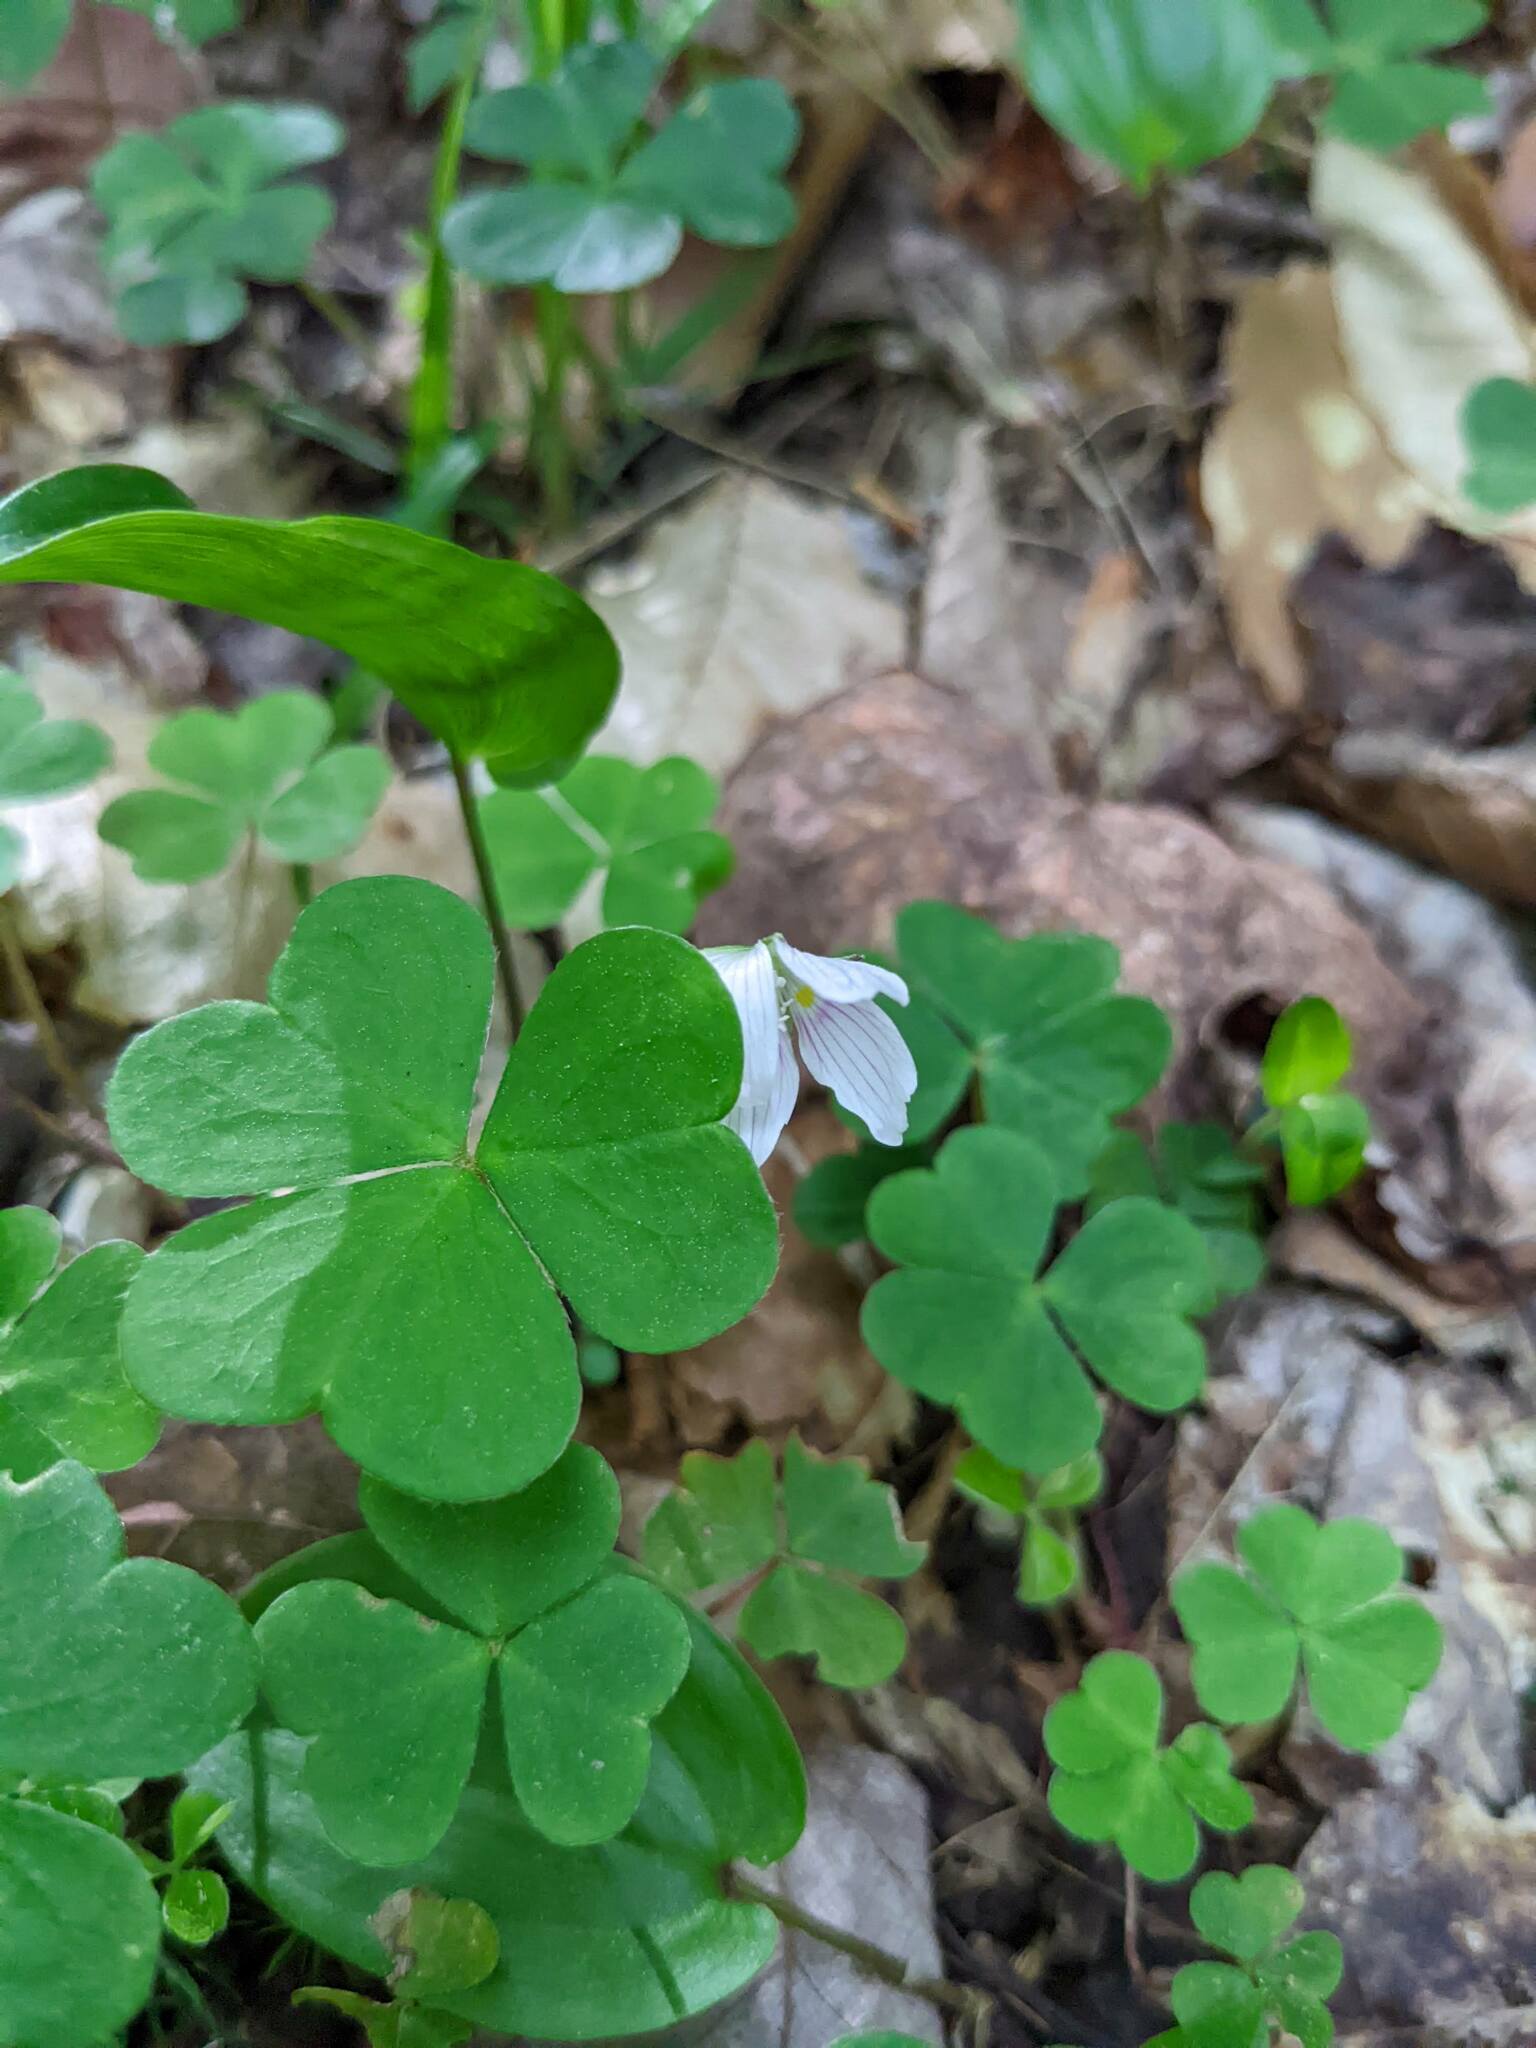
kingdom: Plantae
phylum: Tracheophyta
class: Magnoliopsida
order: Oxalidales
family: Oxalidaceae
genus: Oxalis
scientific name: Oxalis montana
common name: American wood-sorrel
